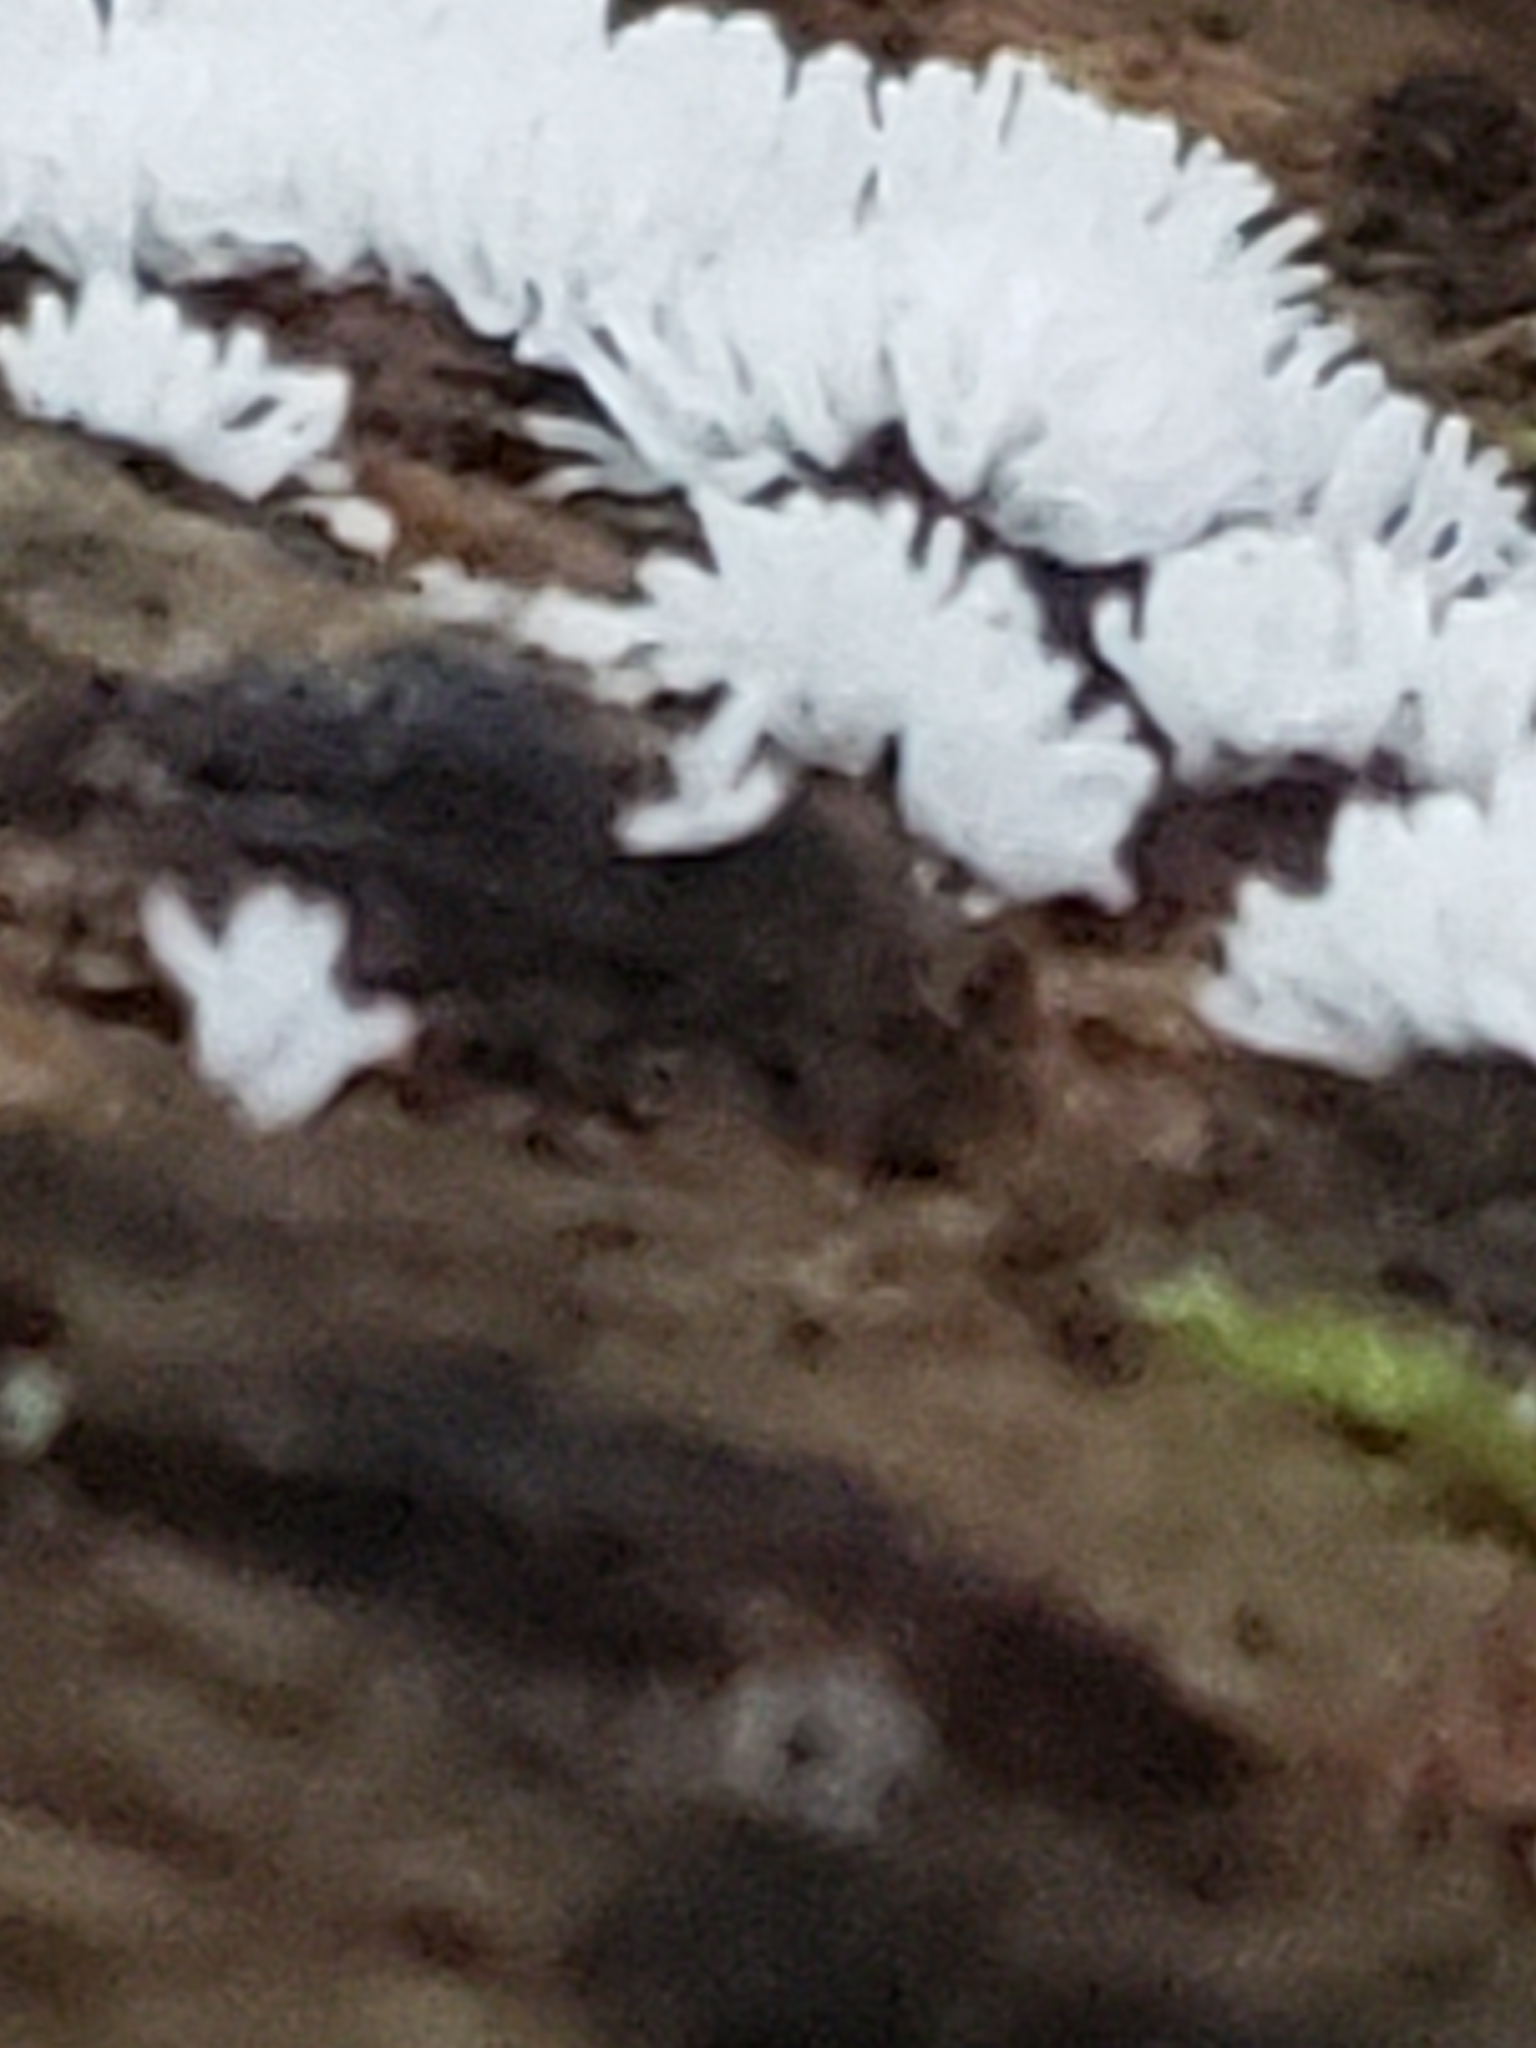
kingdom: Protozoa
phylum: Mycetozoa
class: Protosteliomycetes
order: Ceratiomyxales
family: Ceratiomyxaceae
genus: Ceratiomyxa
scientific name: Ceratiomyxa fruticulosa
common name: Honeycomb coral slime mold
